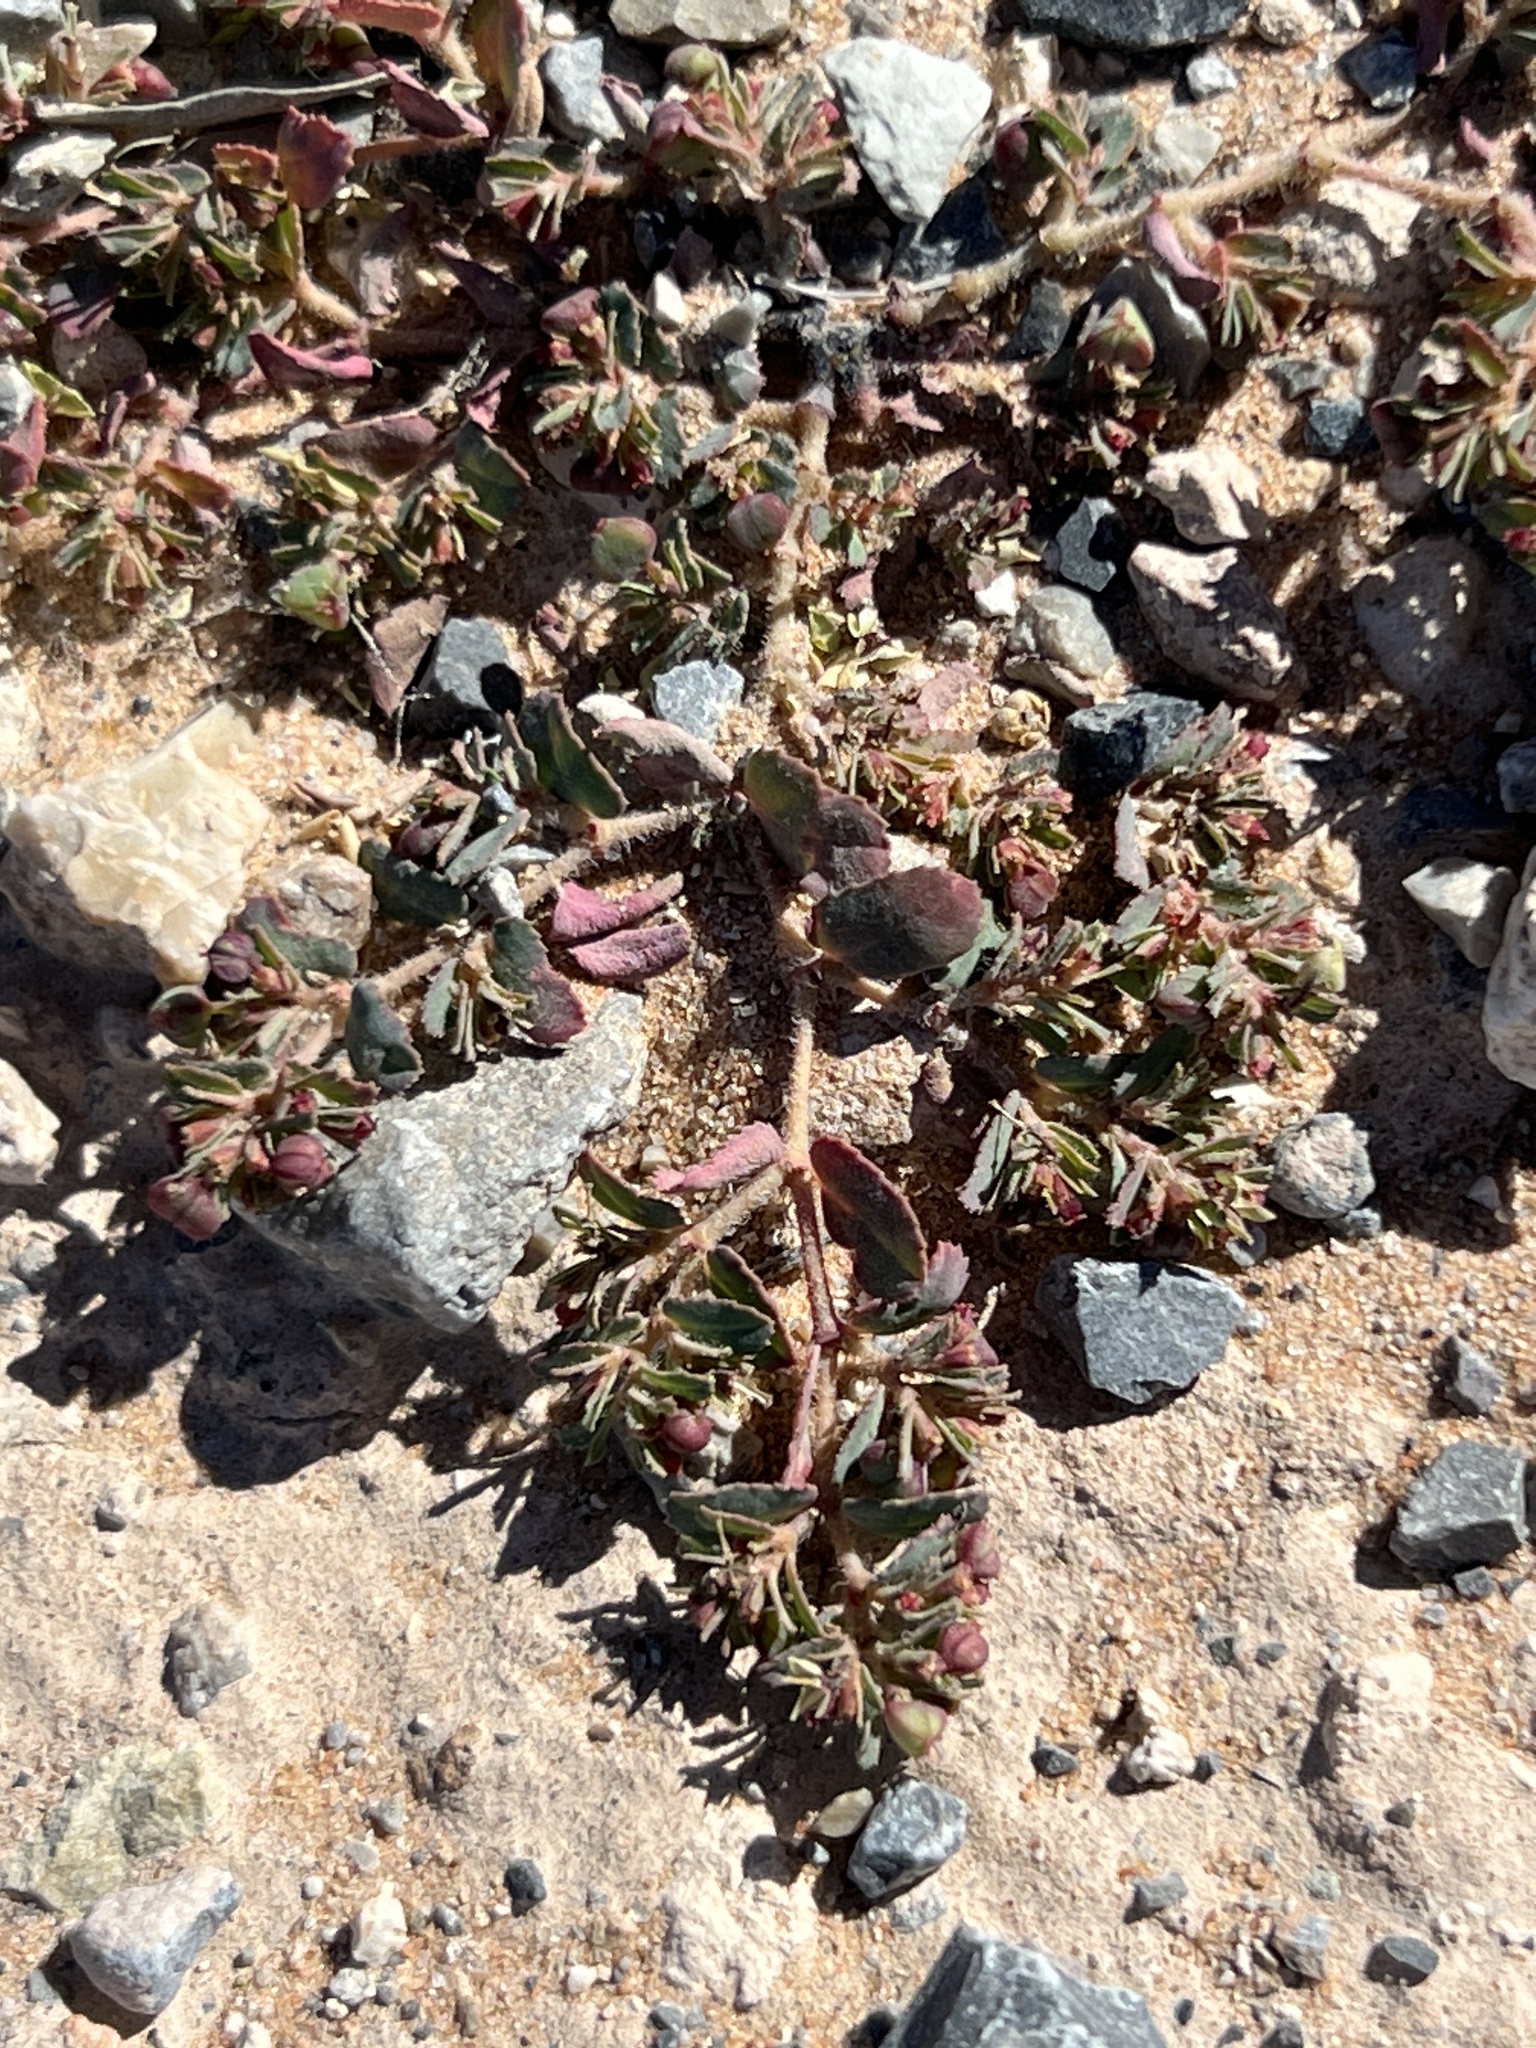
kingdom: Plantae
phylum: Tracheophyta
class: Magnoliopsida
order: Malpighiales
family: Euphorbiaceae
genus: Euphorbia
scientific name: Euphorbia serrula
